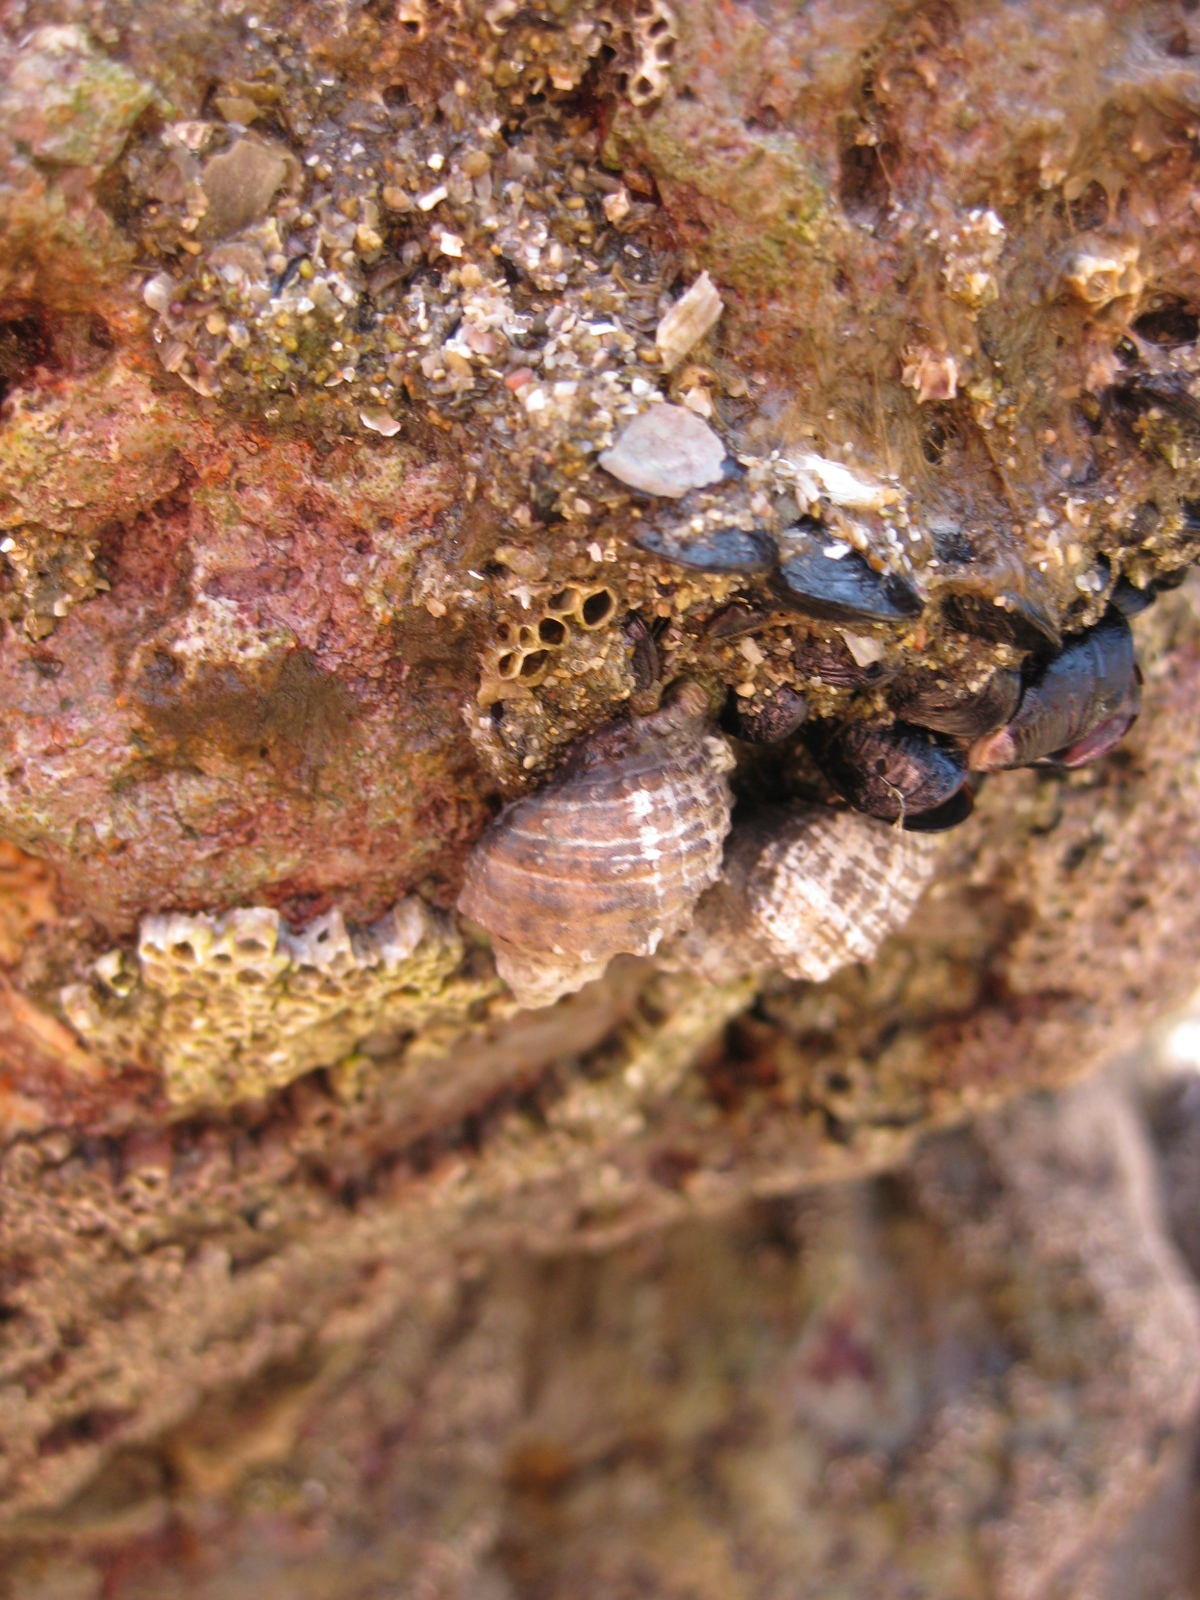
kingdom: Animalia
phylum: Mollusca
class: Gastropoda
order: Neogastropoda
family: Muricidae
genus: Haustrum
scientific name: Haustrum scobina
